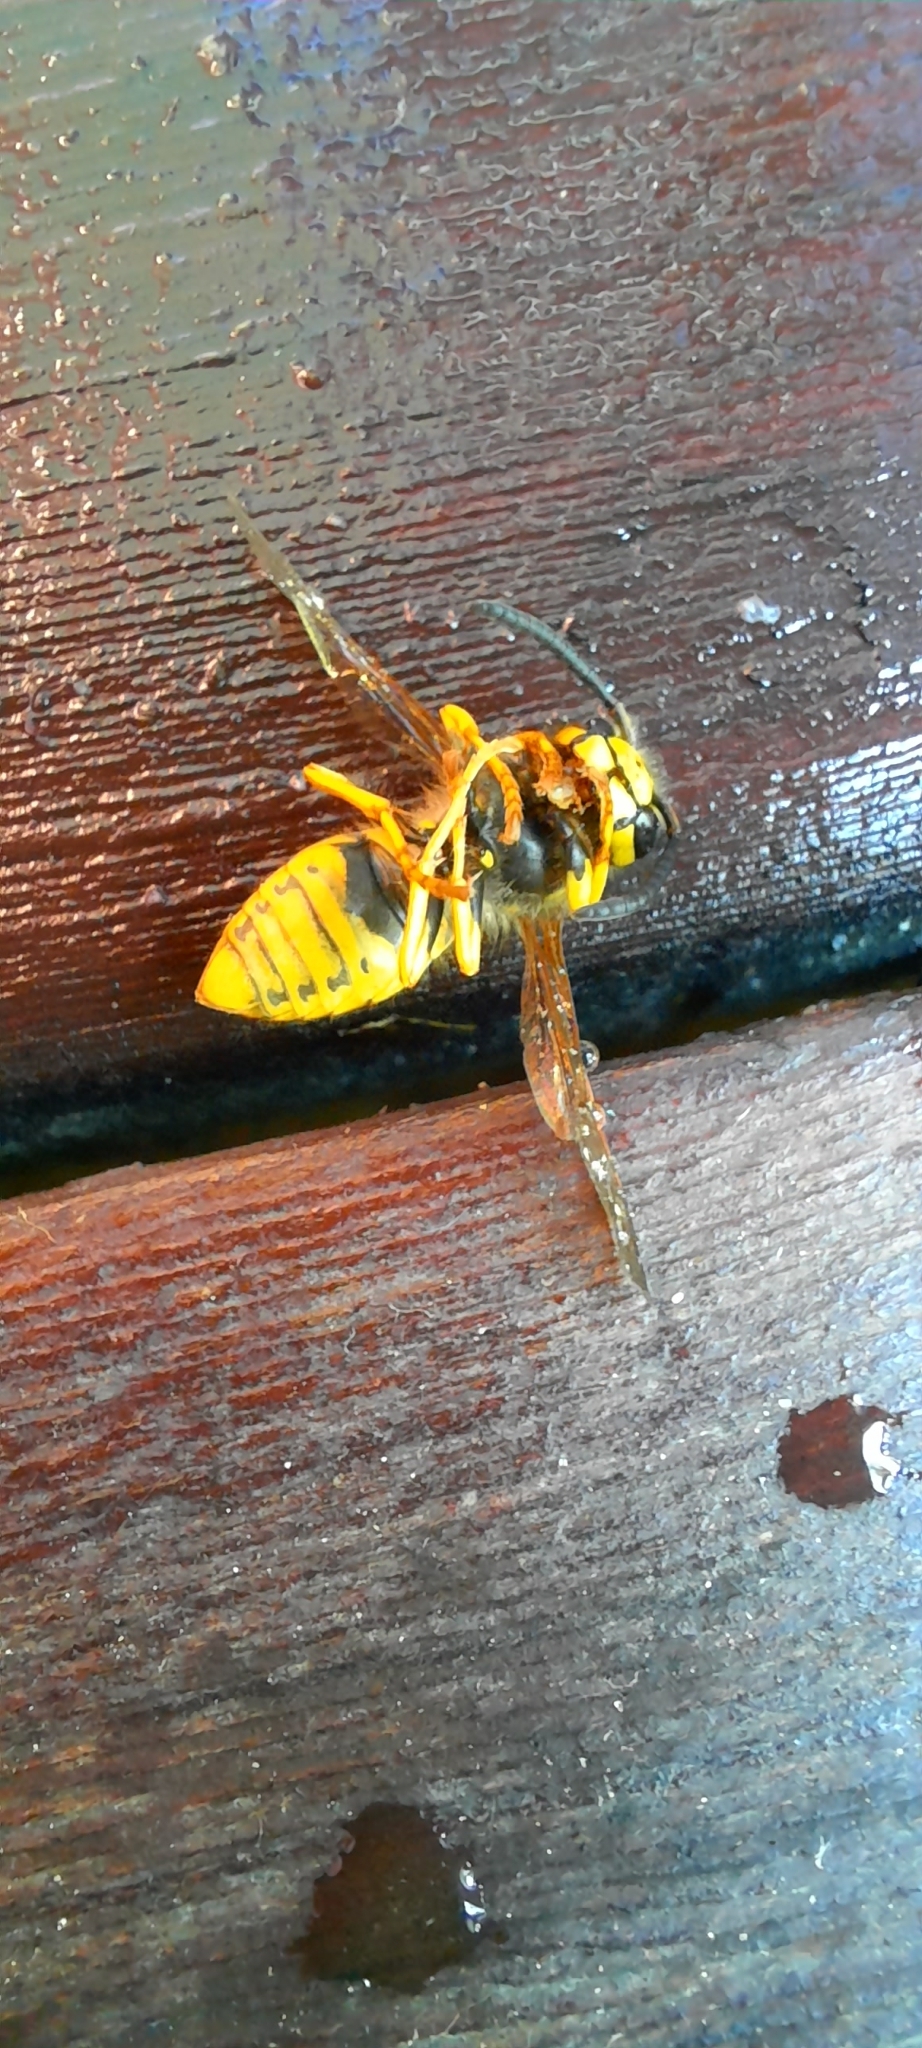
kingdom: Animalia
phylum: Arthropoda
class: Insecta
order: Hymenoptera
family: Vespidae
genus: Vespula
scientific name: Vespula
